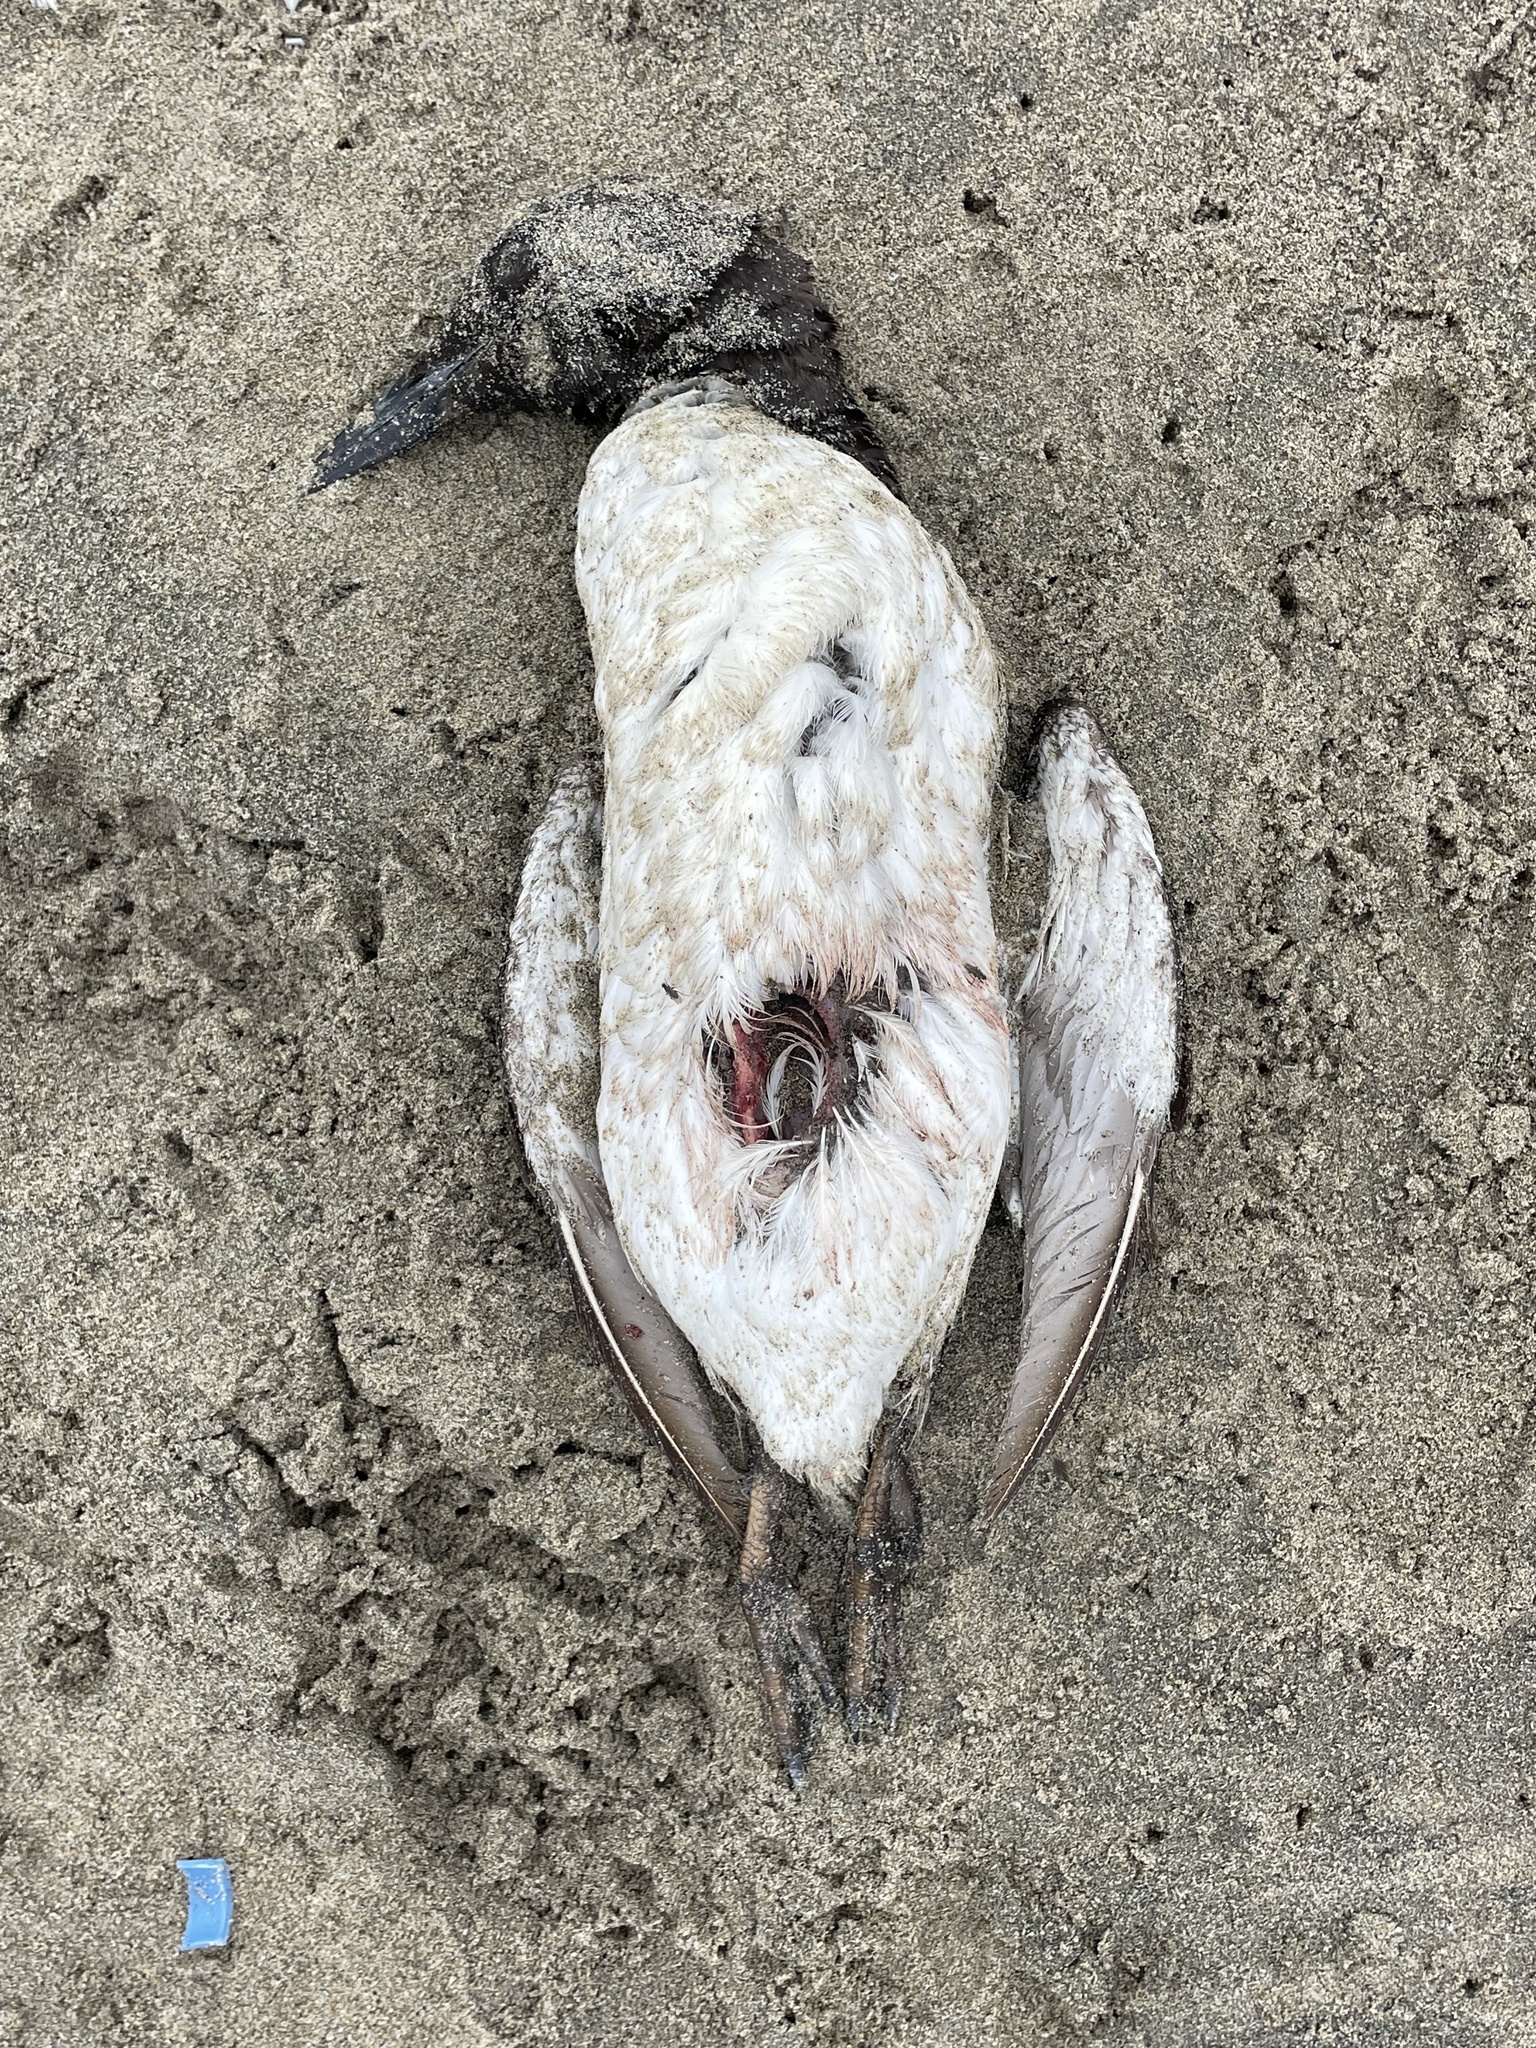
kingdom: Animalia
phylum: Chordata
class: Aves
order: Charadriiformes
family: Alcidae
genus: Uria
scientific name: Uria aalge
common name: Common murre
